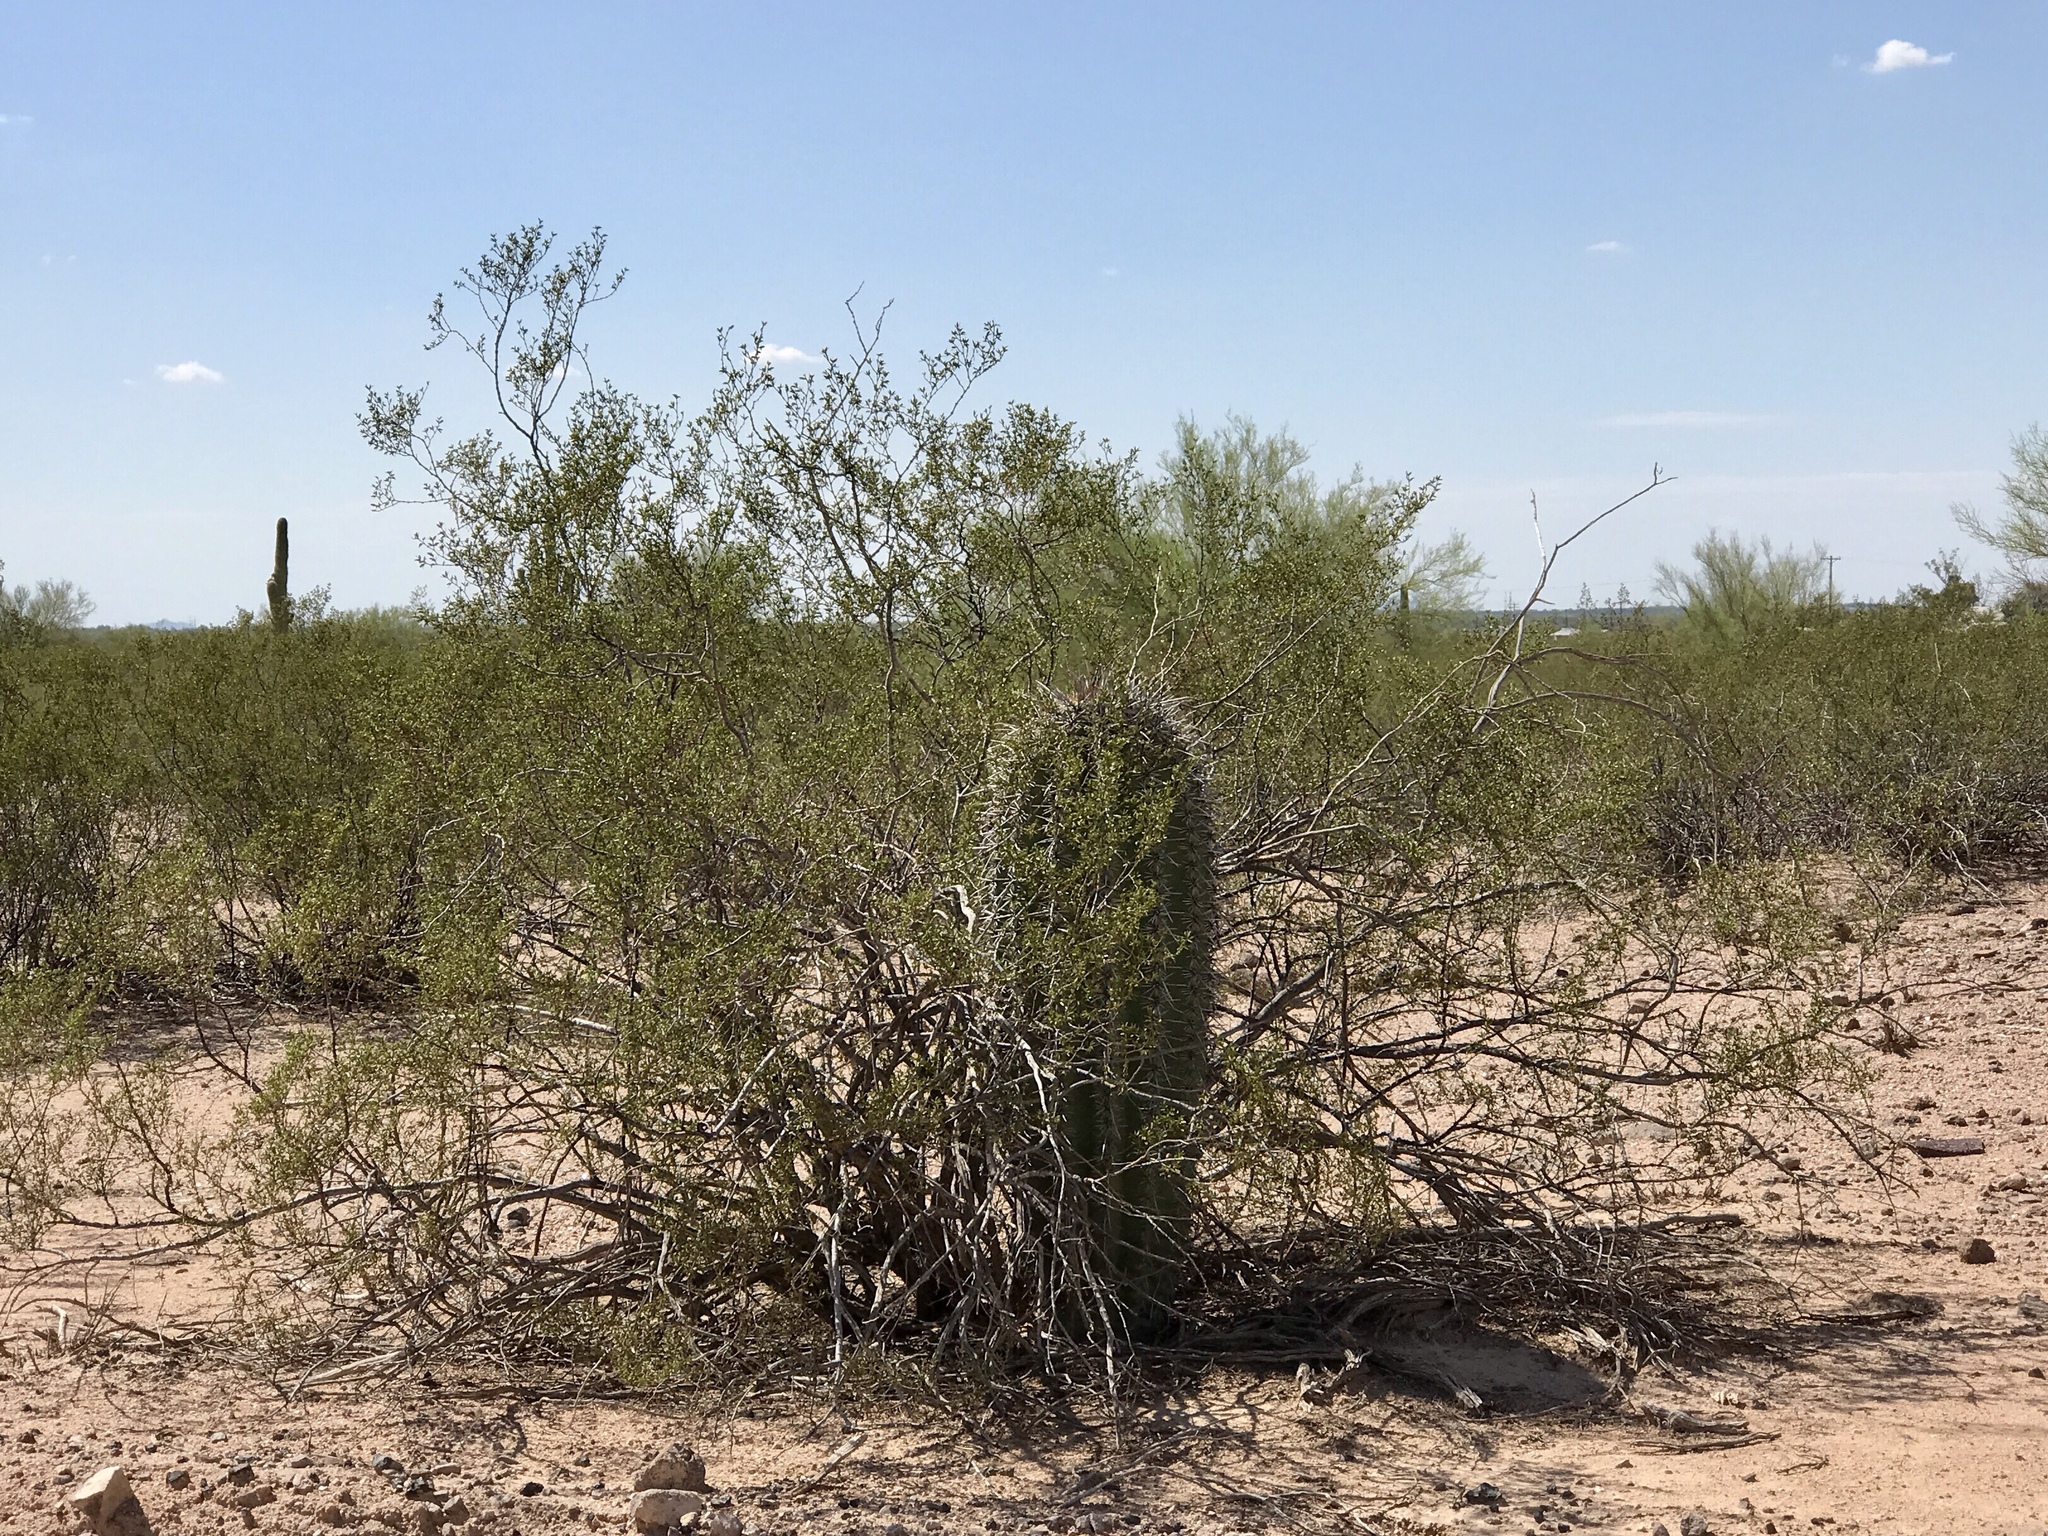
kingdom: Plantae
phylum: Tracheophyta
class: Magnoliopsida
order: Caryophyllales
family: Cactaceae
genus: Carnegiea
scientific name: Carnegiea gigantea
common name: Saguaro
